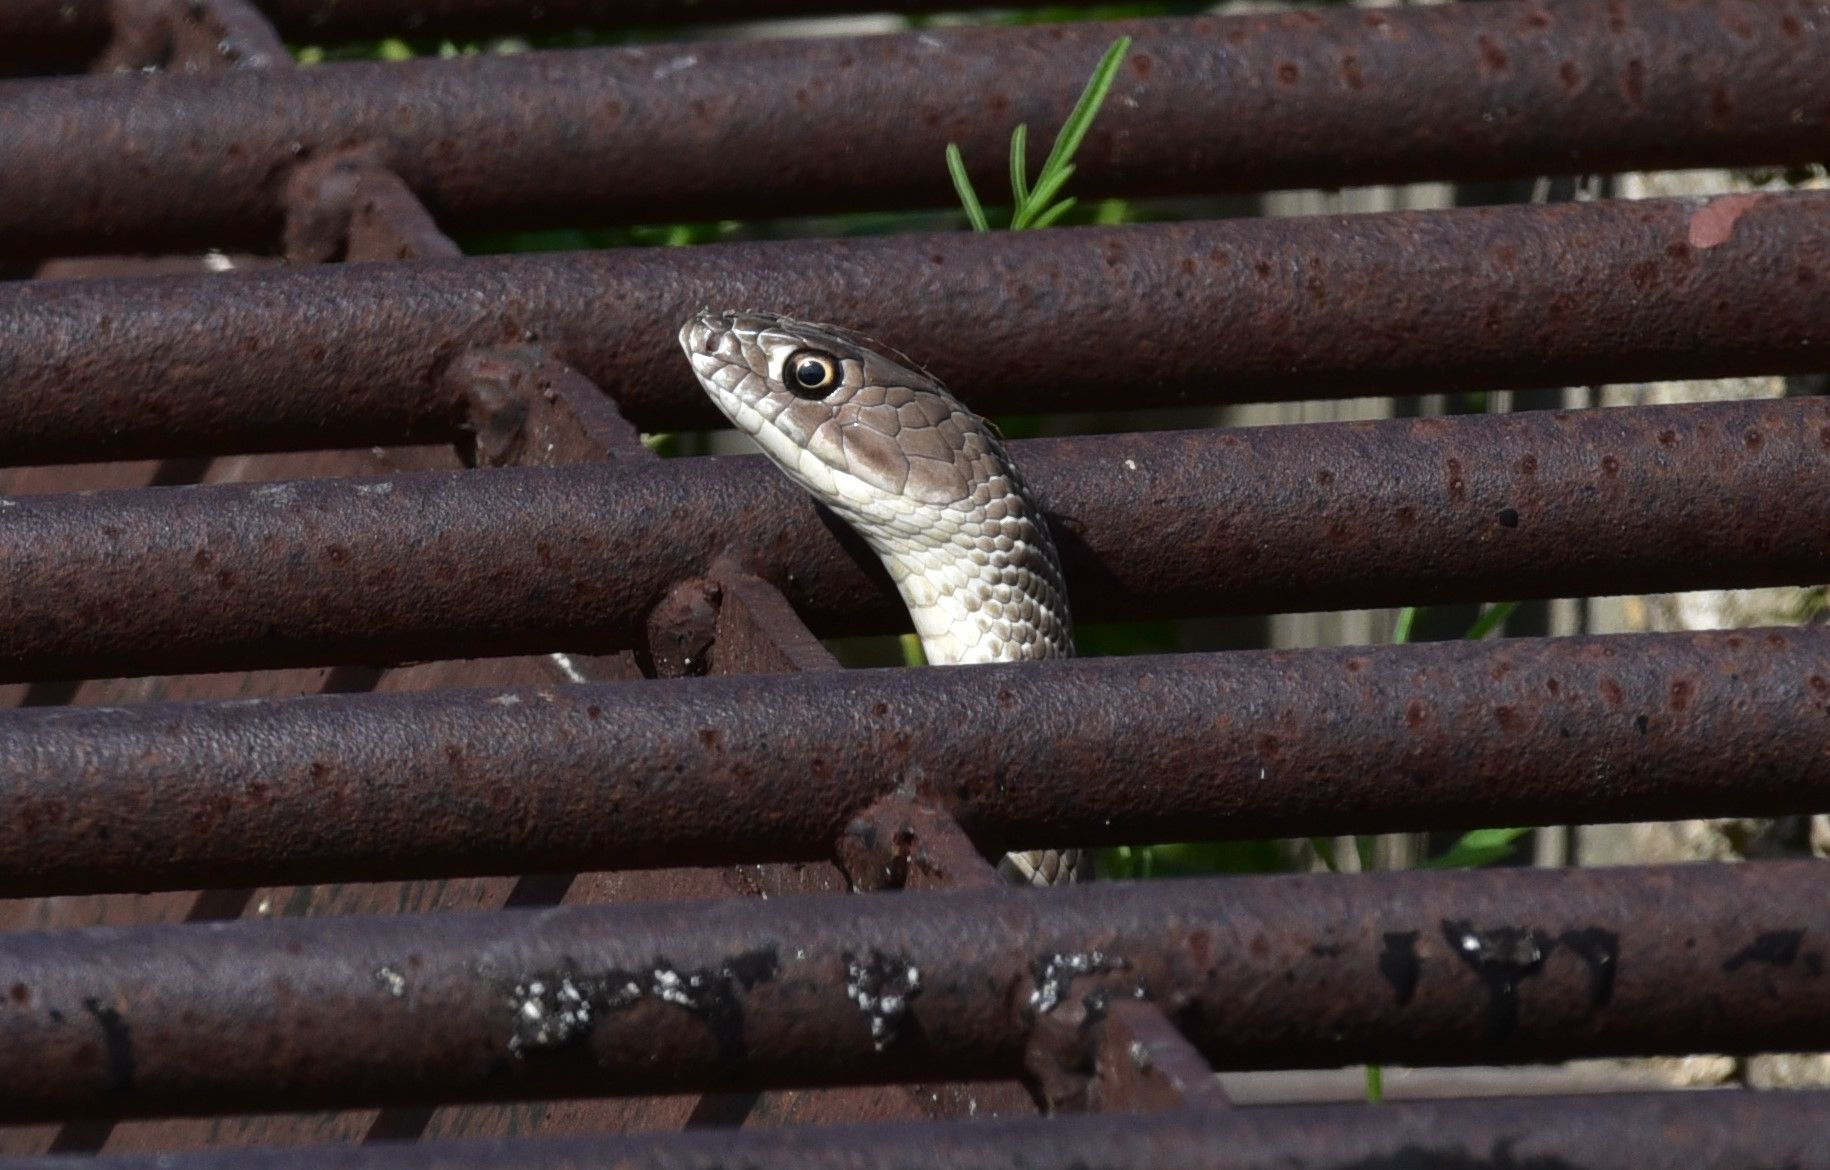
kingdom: Animalia
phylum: Chordata
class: Squamata
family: Colubridae
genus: Masticophis
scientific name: Masticophis flagellum
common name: Coachwhip
